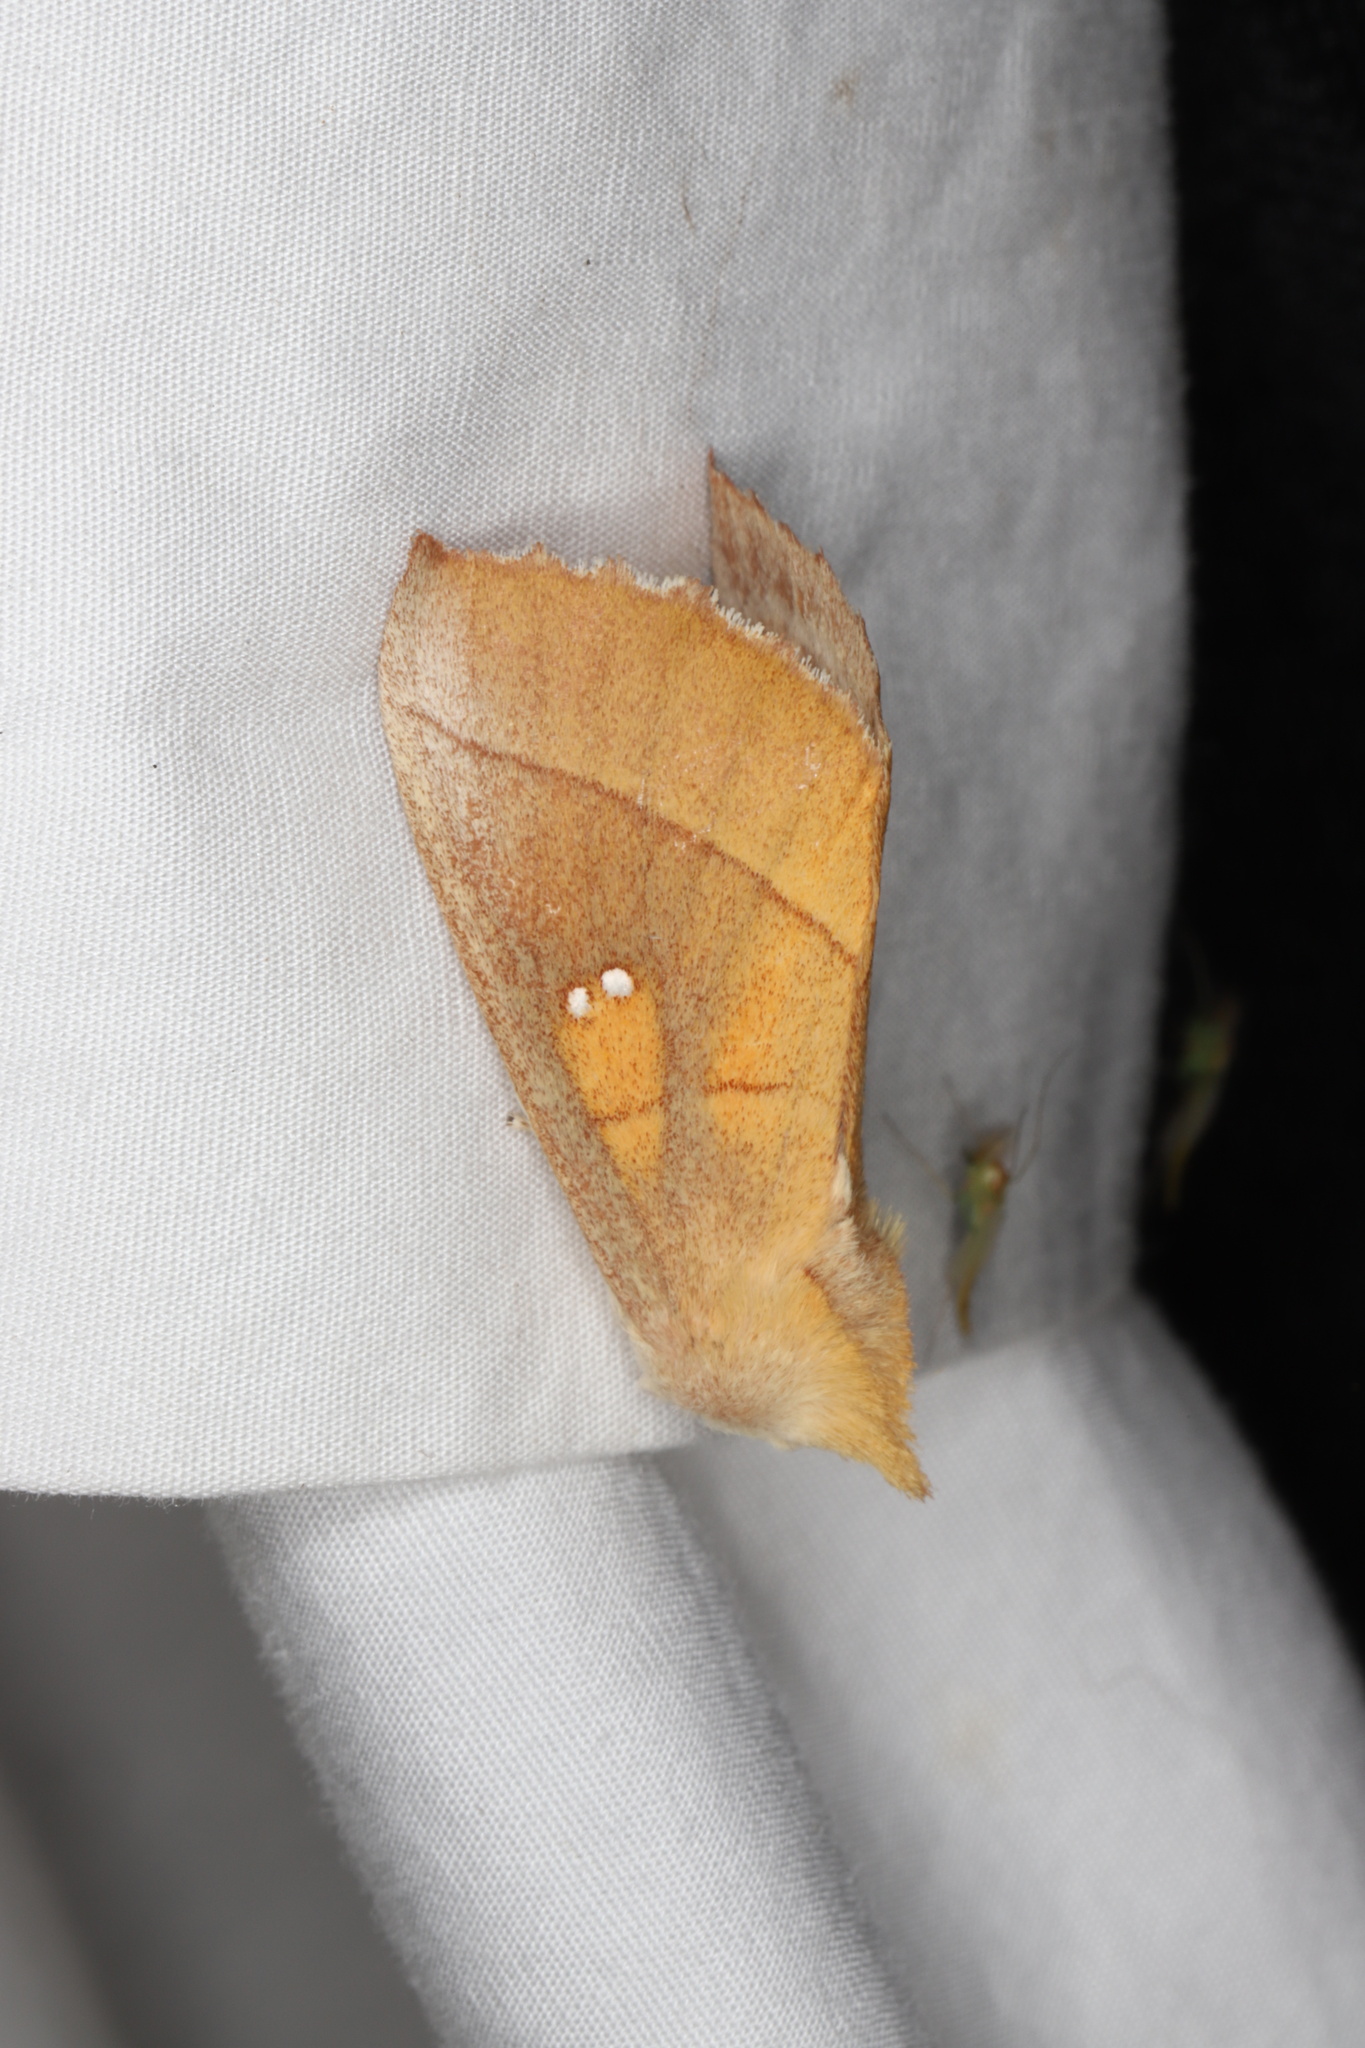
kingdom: Animalia
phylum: Arthropoda
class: Insecta
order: Lepidoptera
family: Notodontidae
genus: Nadata
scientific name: Nadata gibbosa
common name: White-dotted prominent
